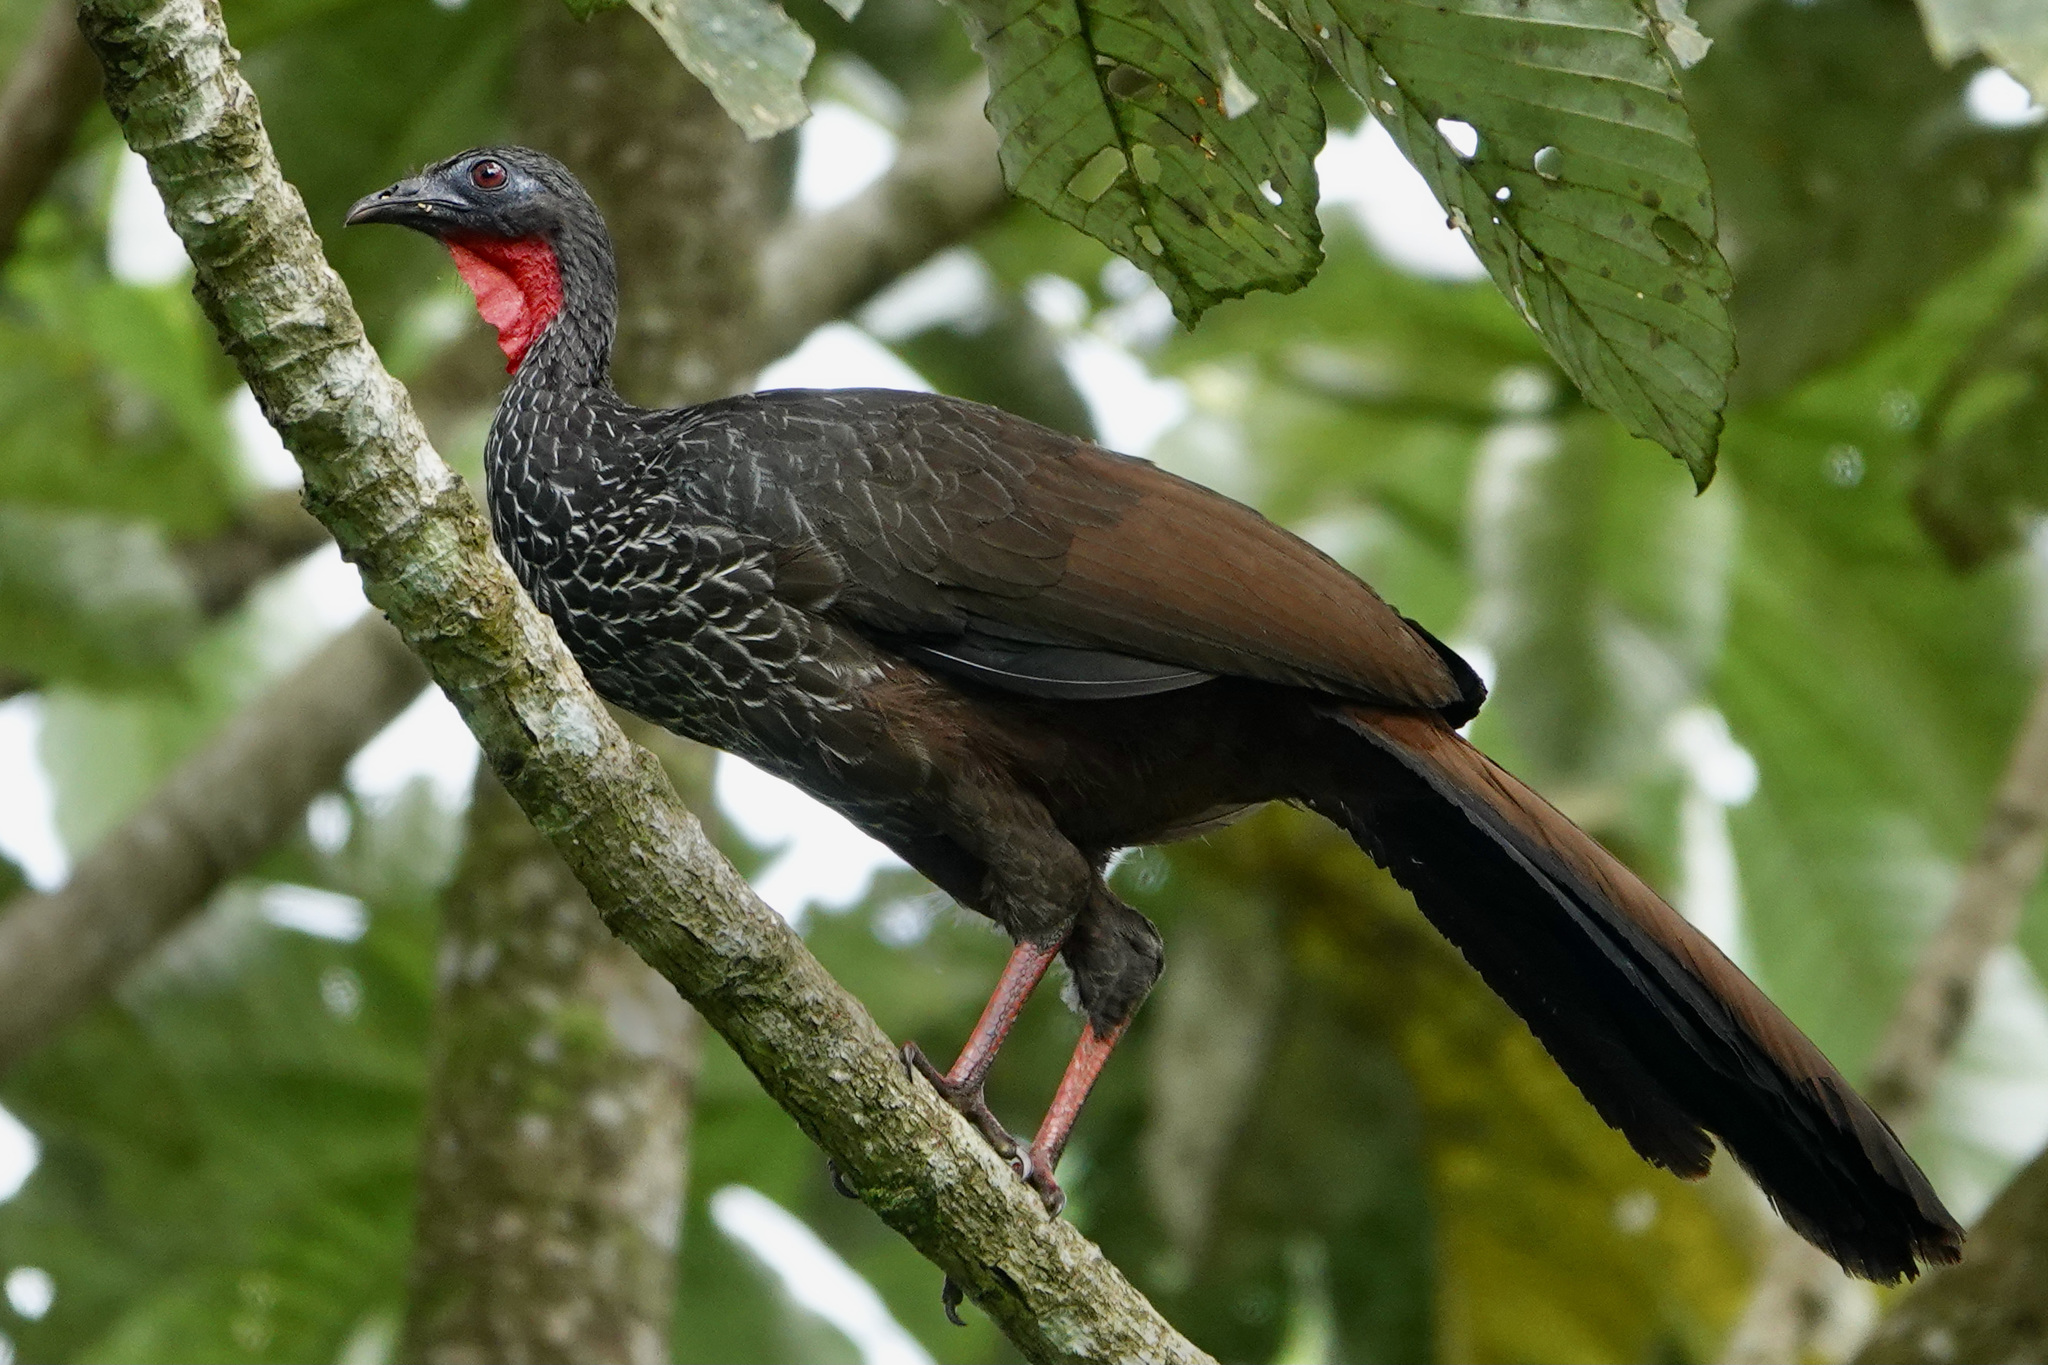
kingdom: Animalia
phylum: Chordata
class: Aves
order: Galliformes
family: Cracidae
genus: Penelope
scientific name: Penelope perspicax
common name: Cauca guan
